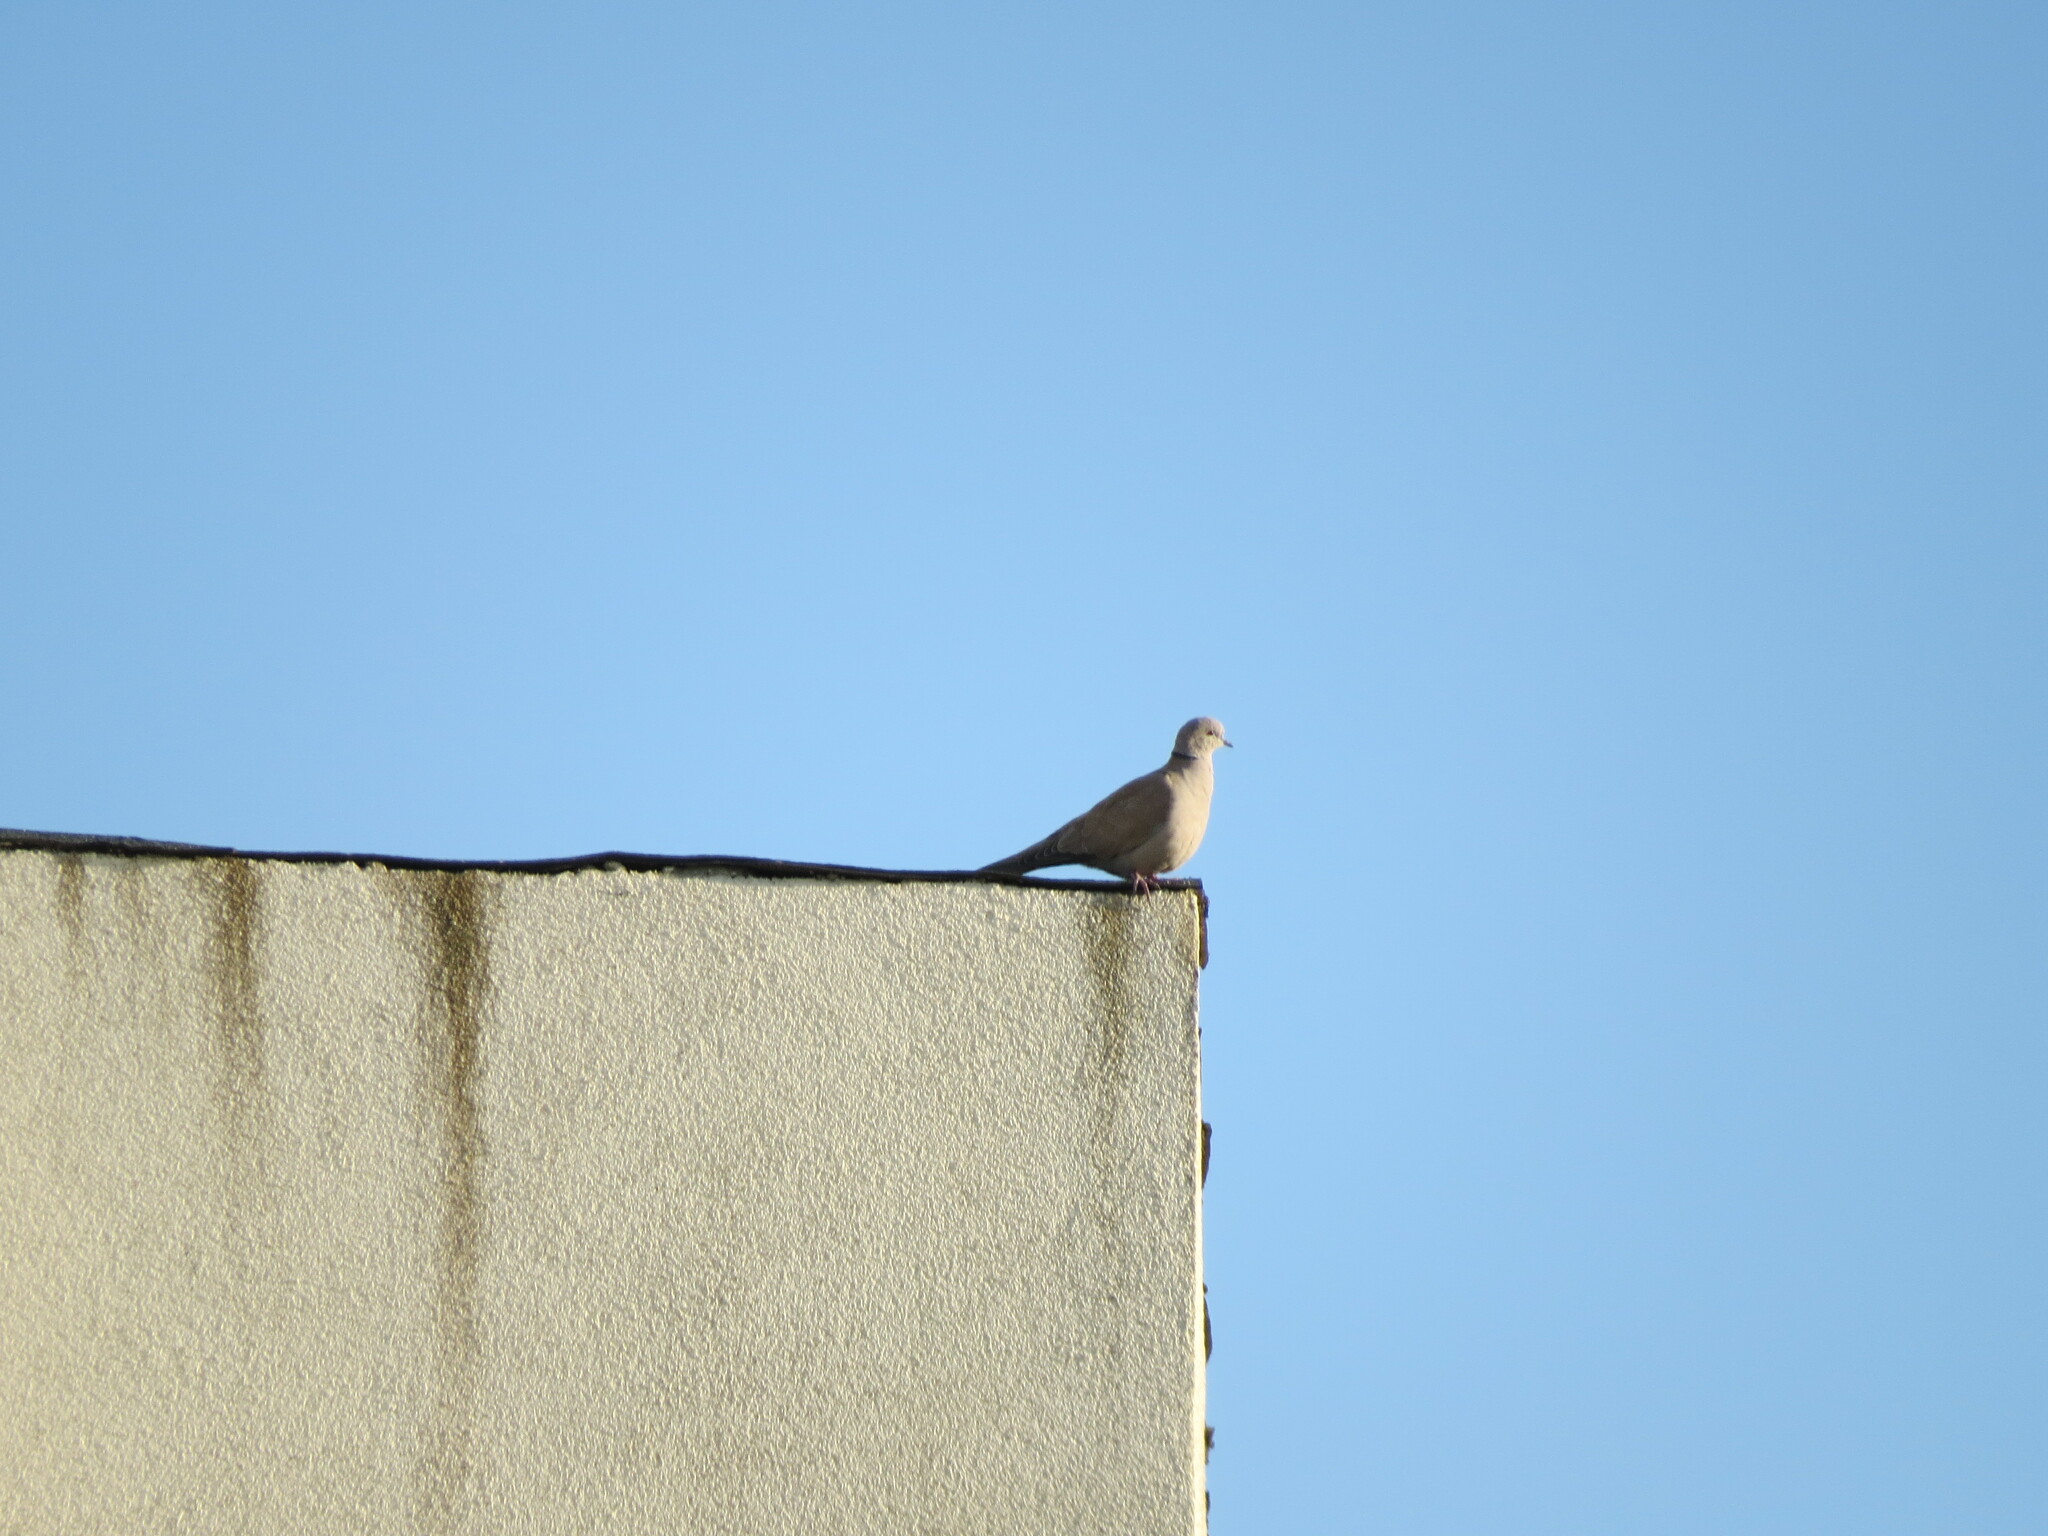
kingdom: Animalia
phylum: Chordata
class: Aves
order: Columbiformes
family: Columbidae
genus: Streptopelia
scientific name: Streptopelia decaocto
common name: Eurasian collared dove
